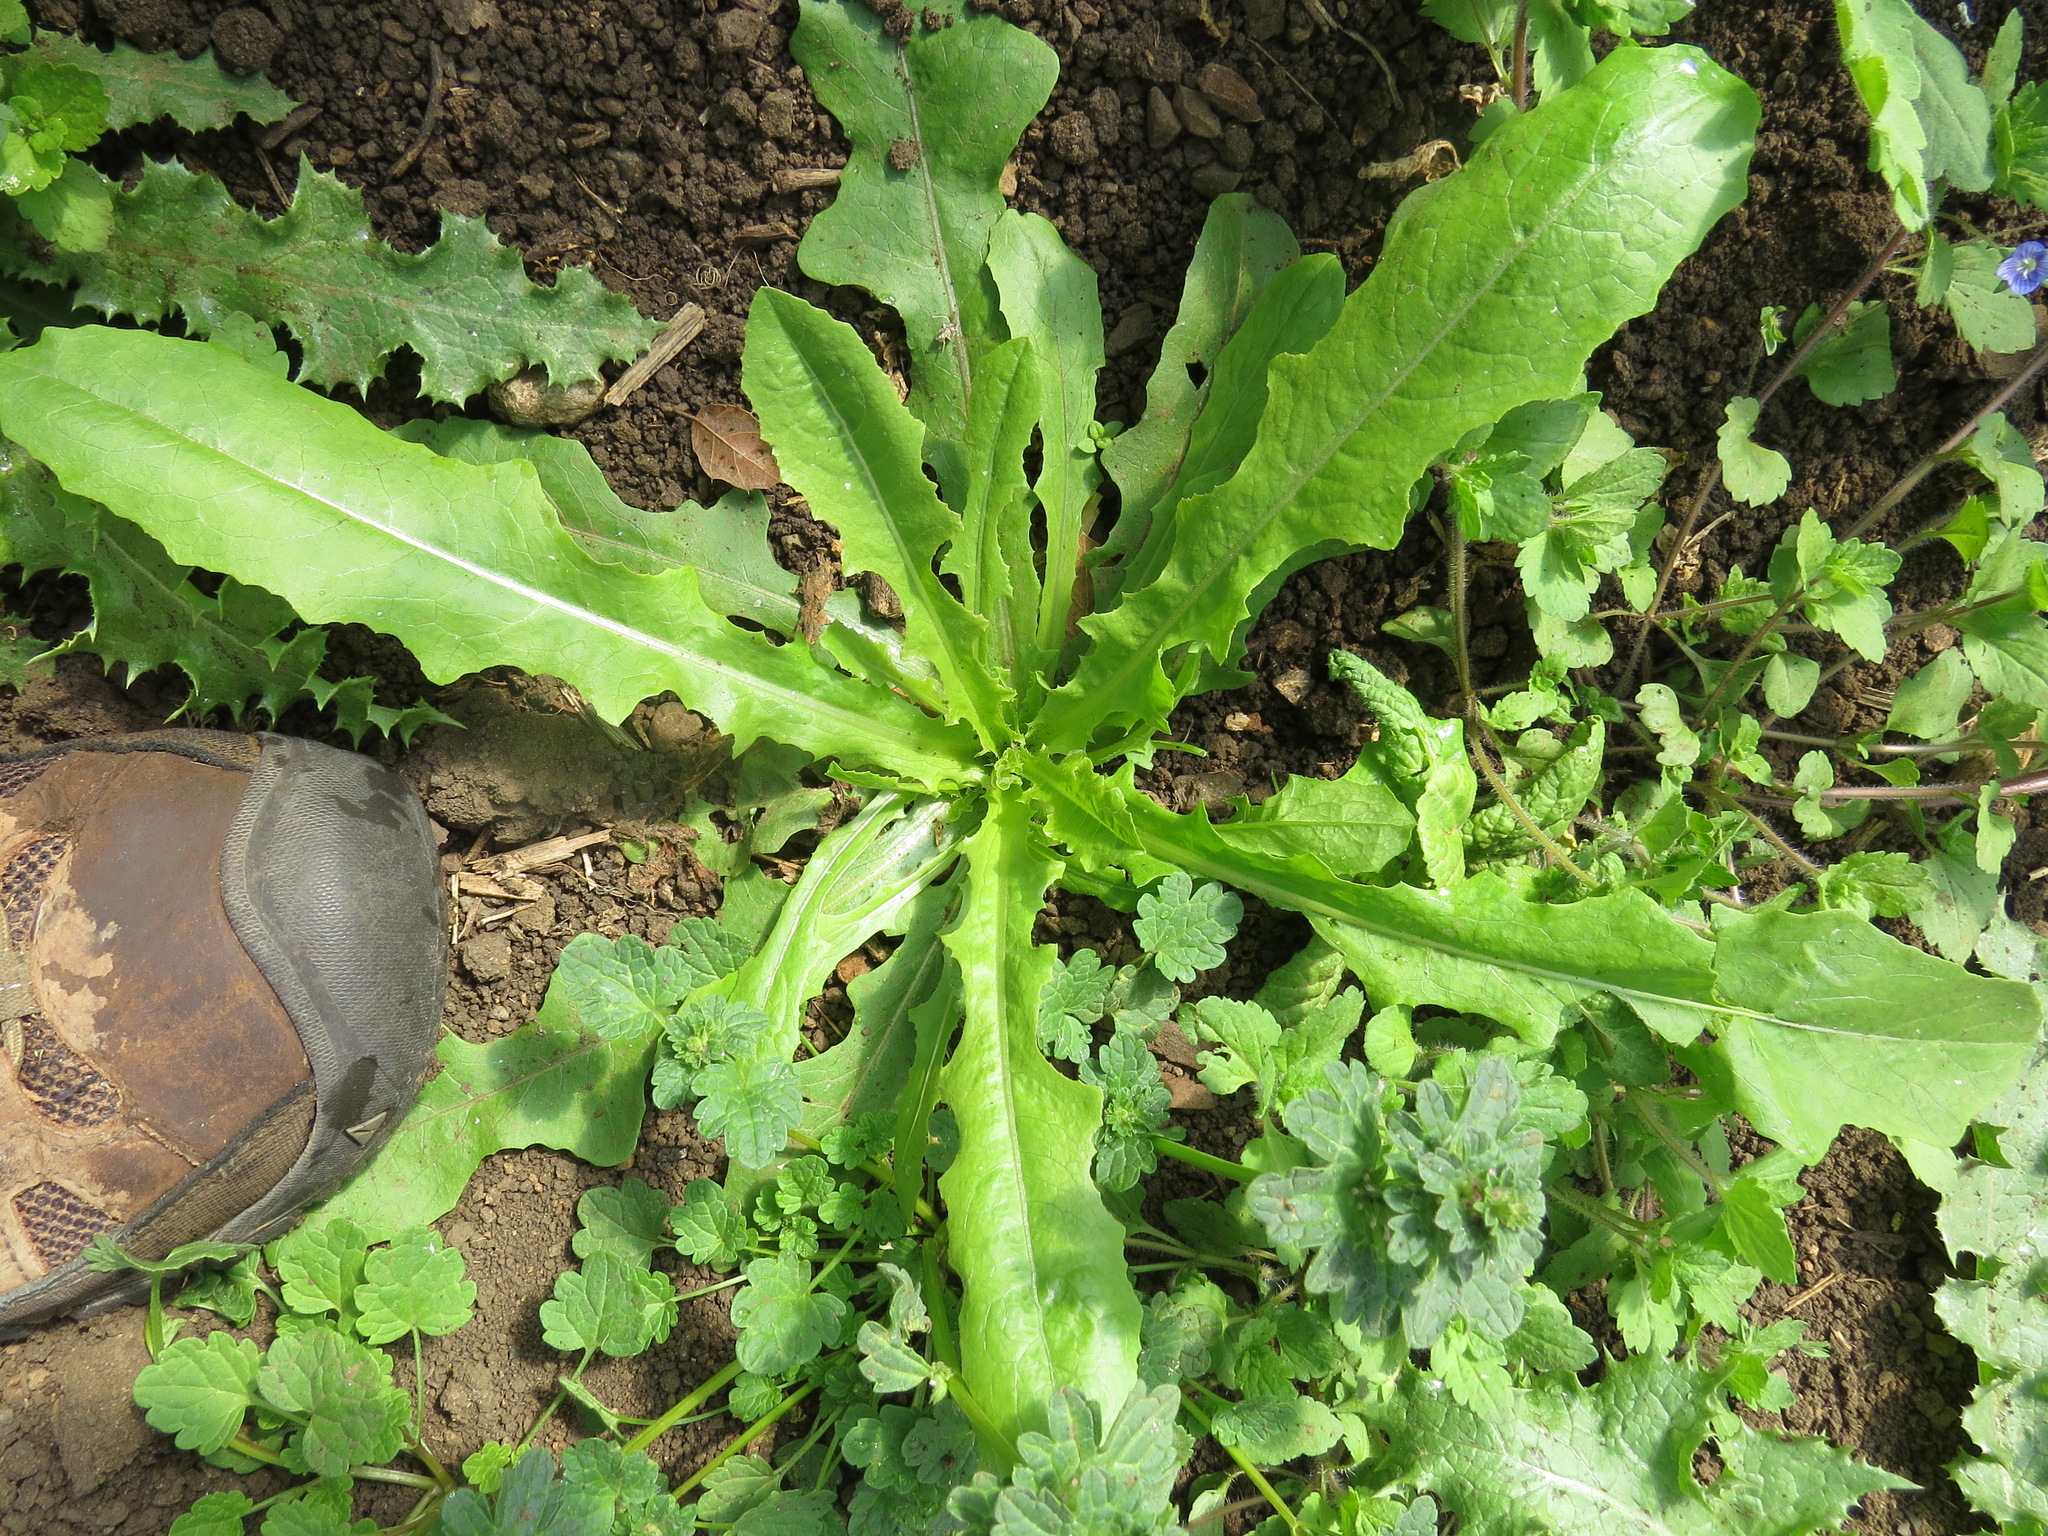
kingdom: Plantae
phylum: Tracheophyta
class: Magnoliopsida
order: Asterales
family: Asteraceae
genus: Lactuca
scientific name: Lactuca serriola
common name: Prickly lettuce
